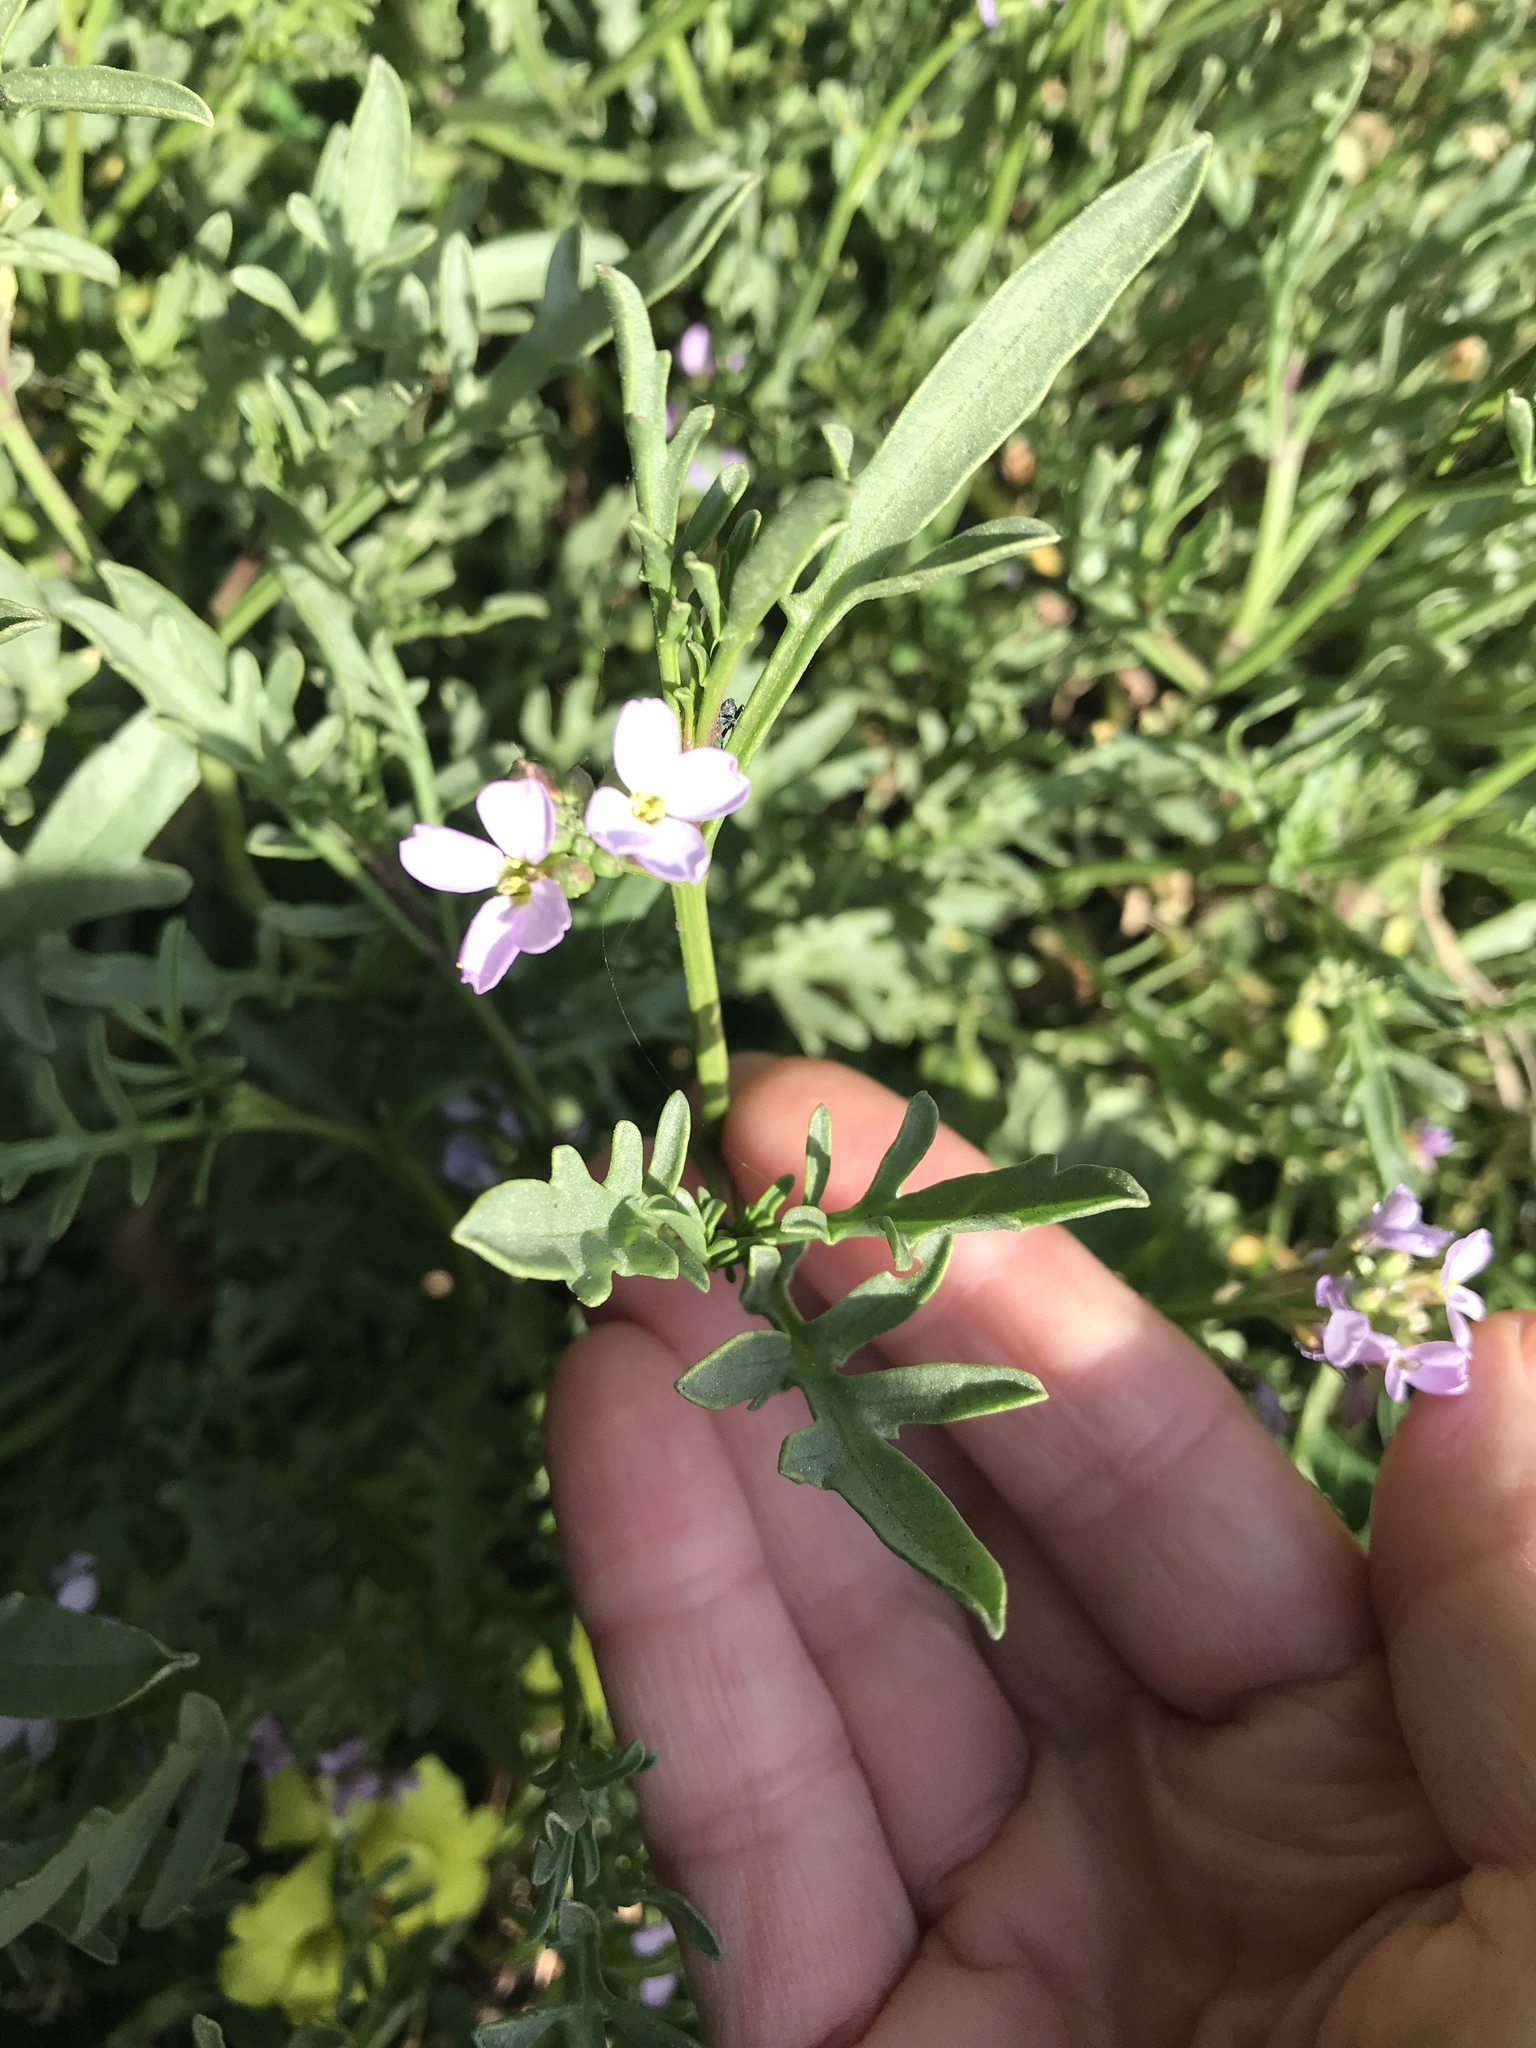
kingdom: Plantae
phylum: Tracheophyta
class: Magnoliopsida
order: Brassicales
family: Brassicaceae
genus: Cakile
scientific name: Cakile maritima
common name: Sea rocket
